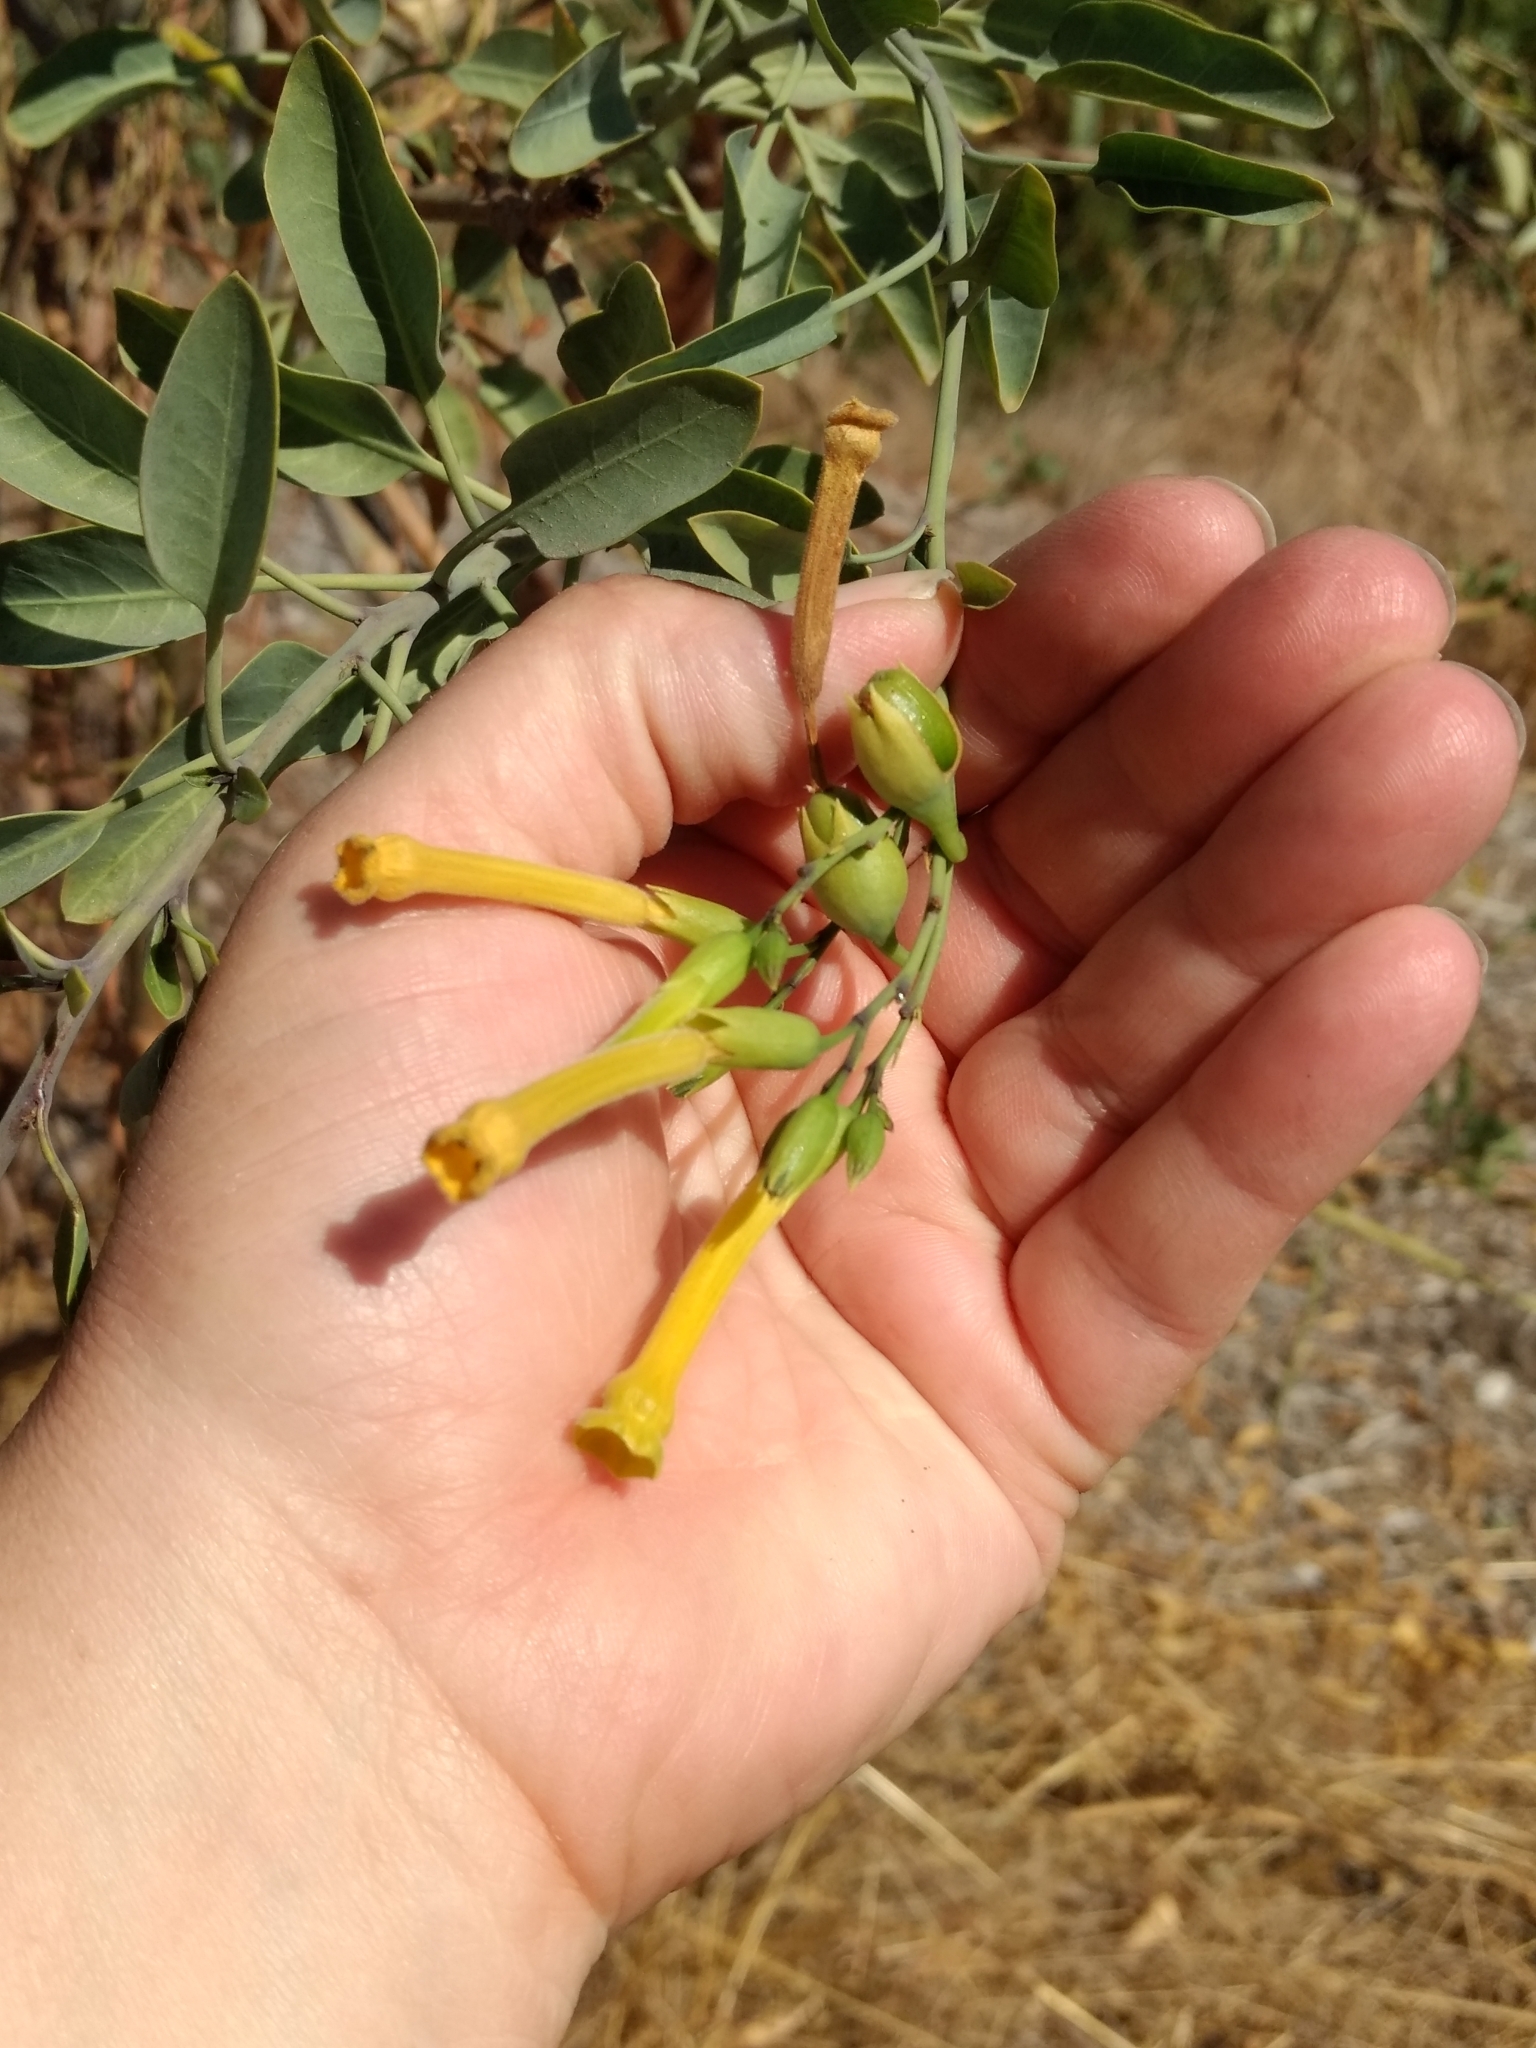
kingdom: Plantae
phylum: Tracheophyta
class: Magnoliopsida
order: Solanales
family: Solanaceae
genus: Nicotiana
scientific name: Nicotiana glauca
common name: Tree tobacco
